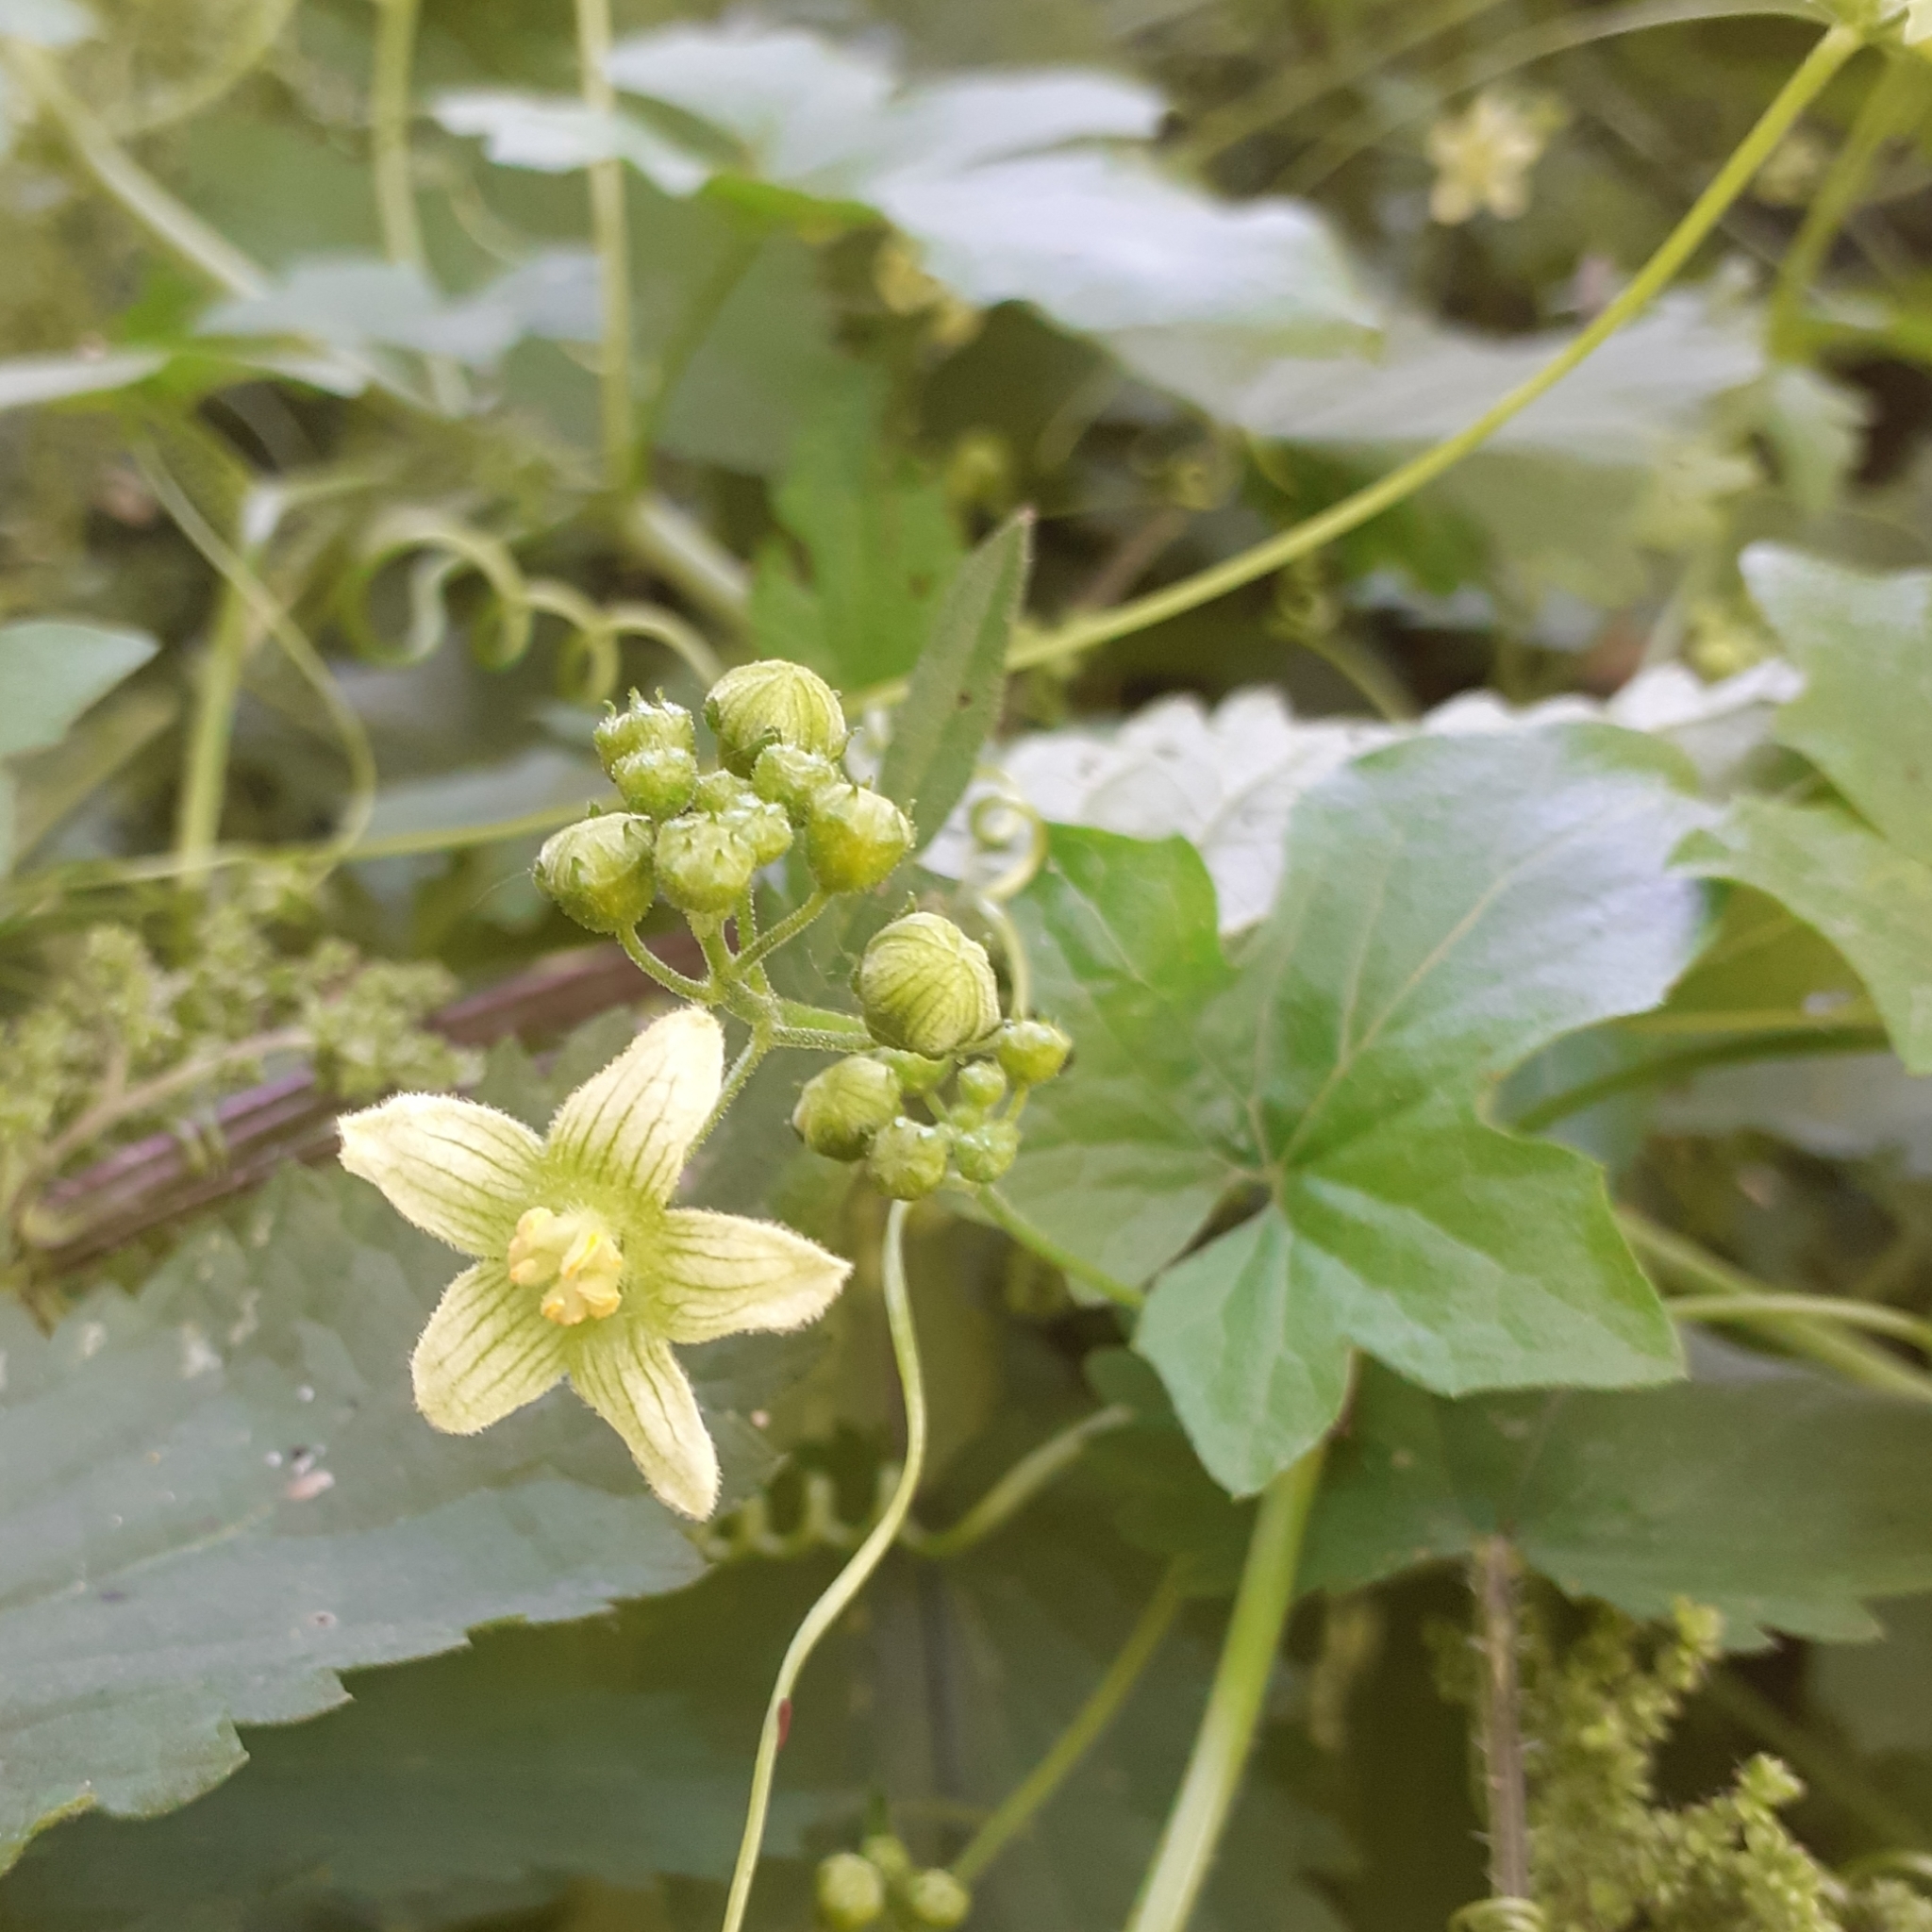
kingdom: Plantae
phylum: Tracheophyta
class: Magnoliopsida
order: Cucurbitales
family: Cucurbitaceae
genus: Bryonia
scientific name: Bryonia cretica
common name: Cretan bryony
